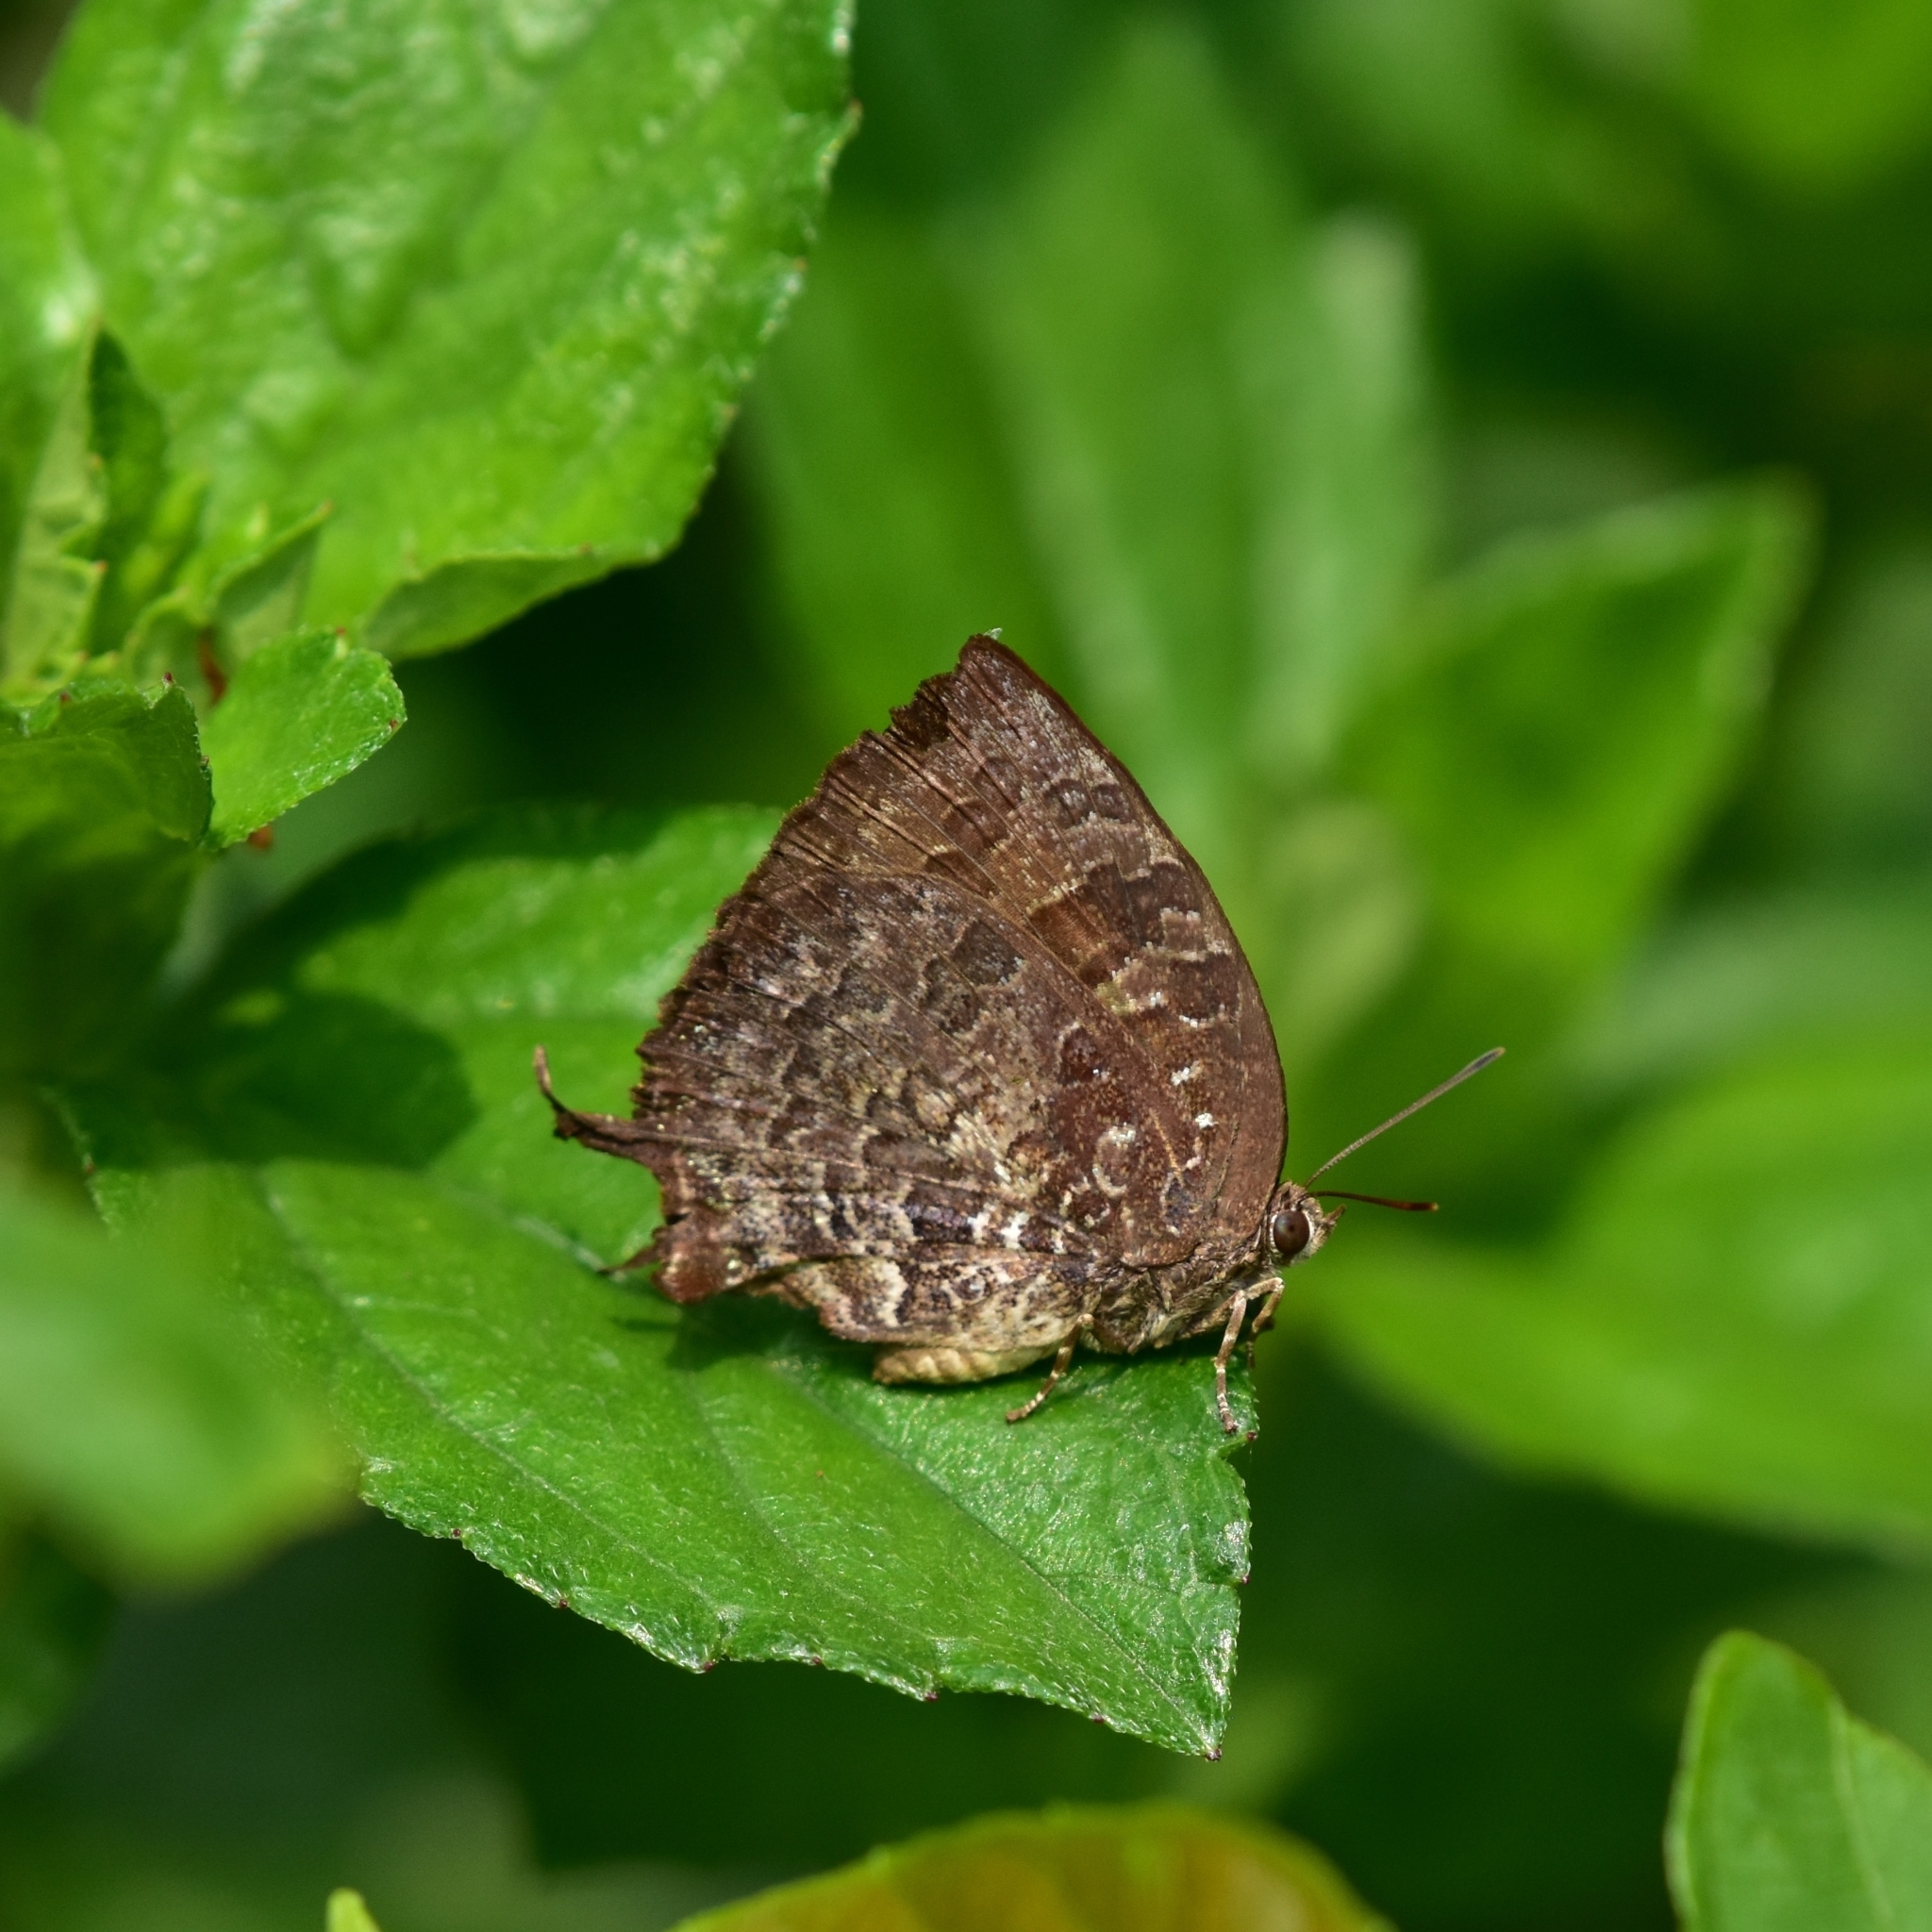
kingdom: Animalia
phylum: Arthropoda
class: Insecta
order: Lepidoptera
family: Lycaenidae
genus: Thaduka
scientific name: Thaduka multicaudata
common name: Many-tailed oakblue
